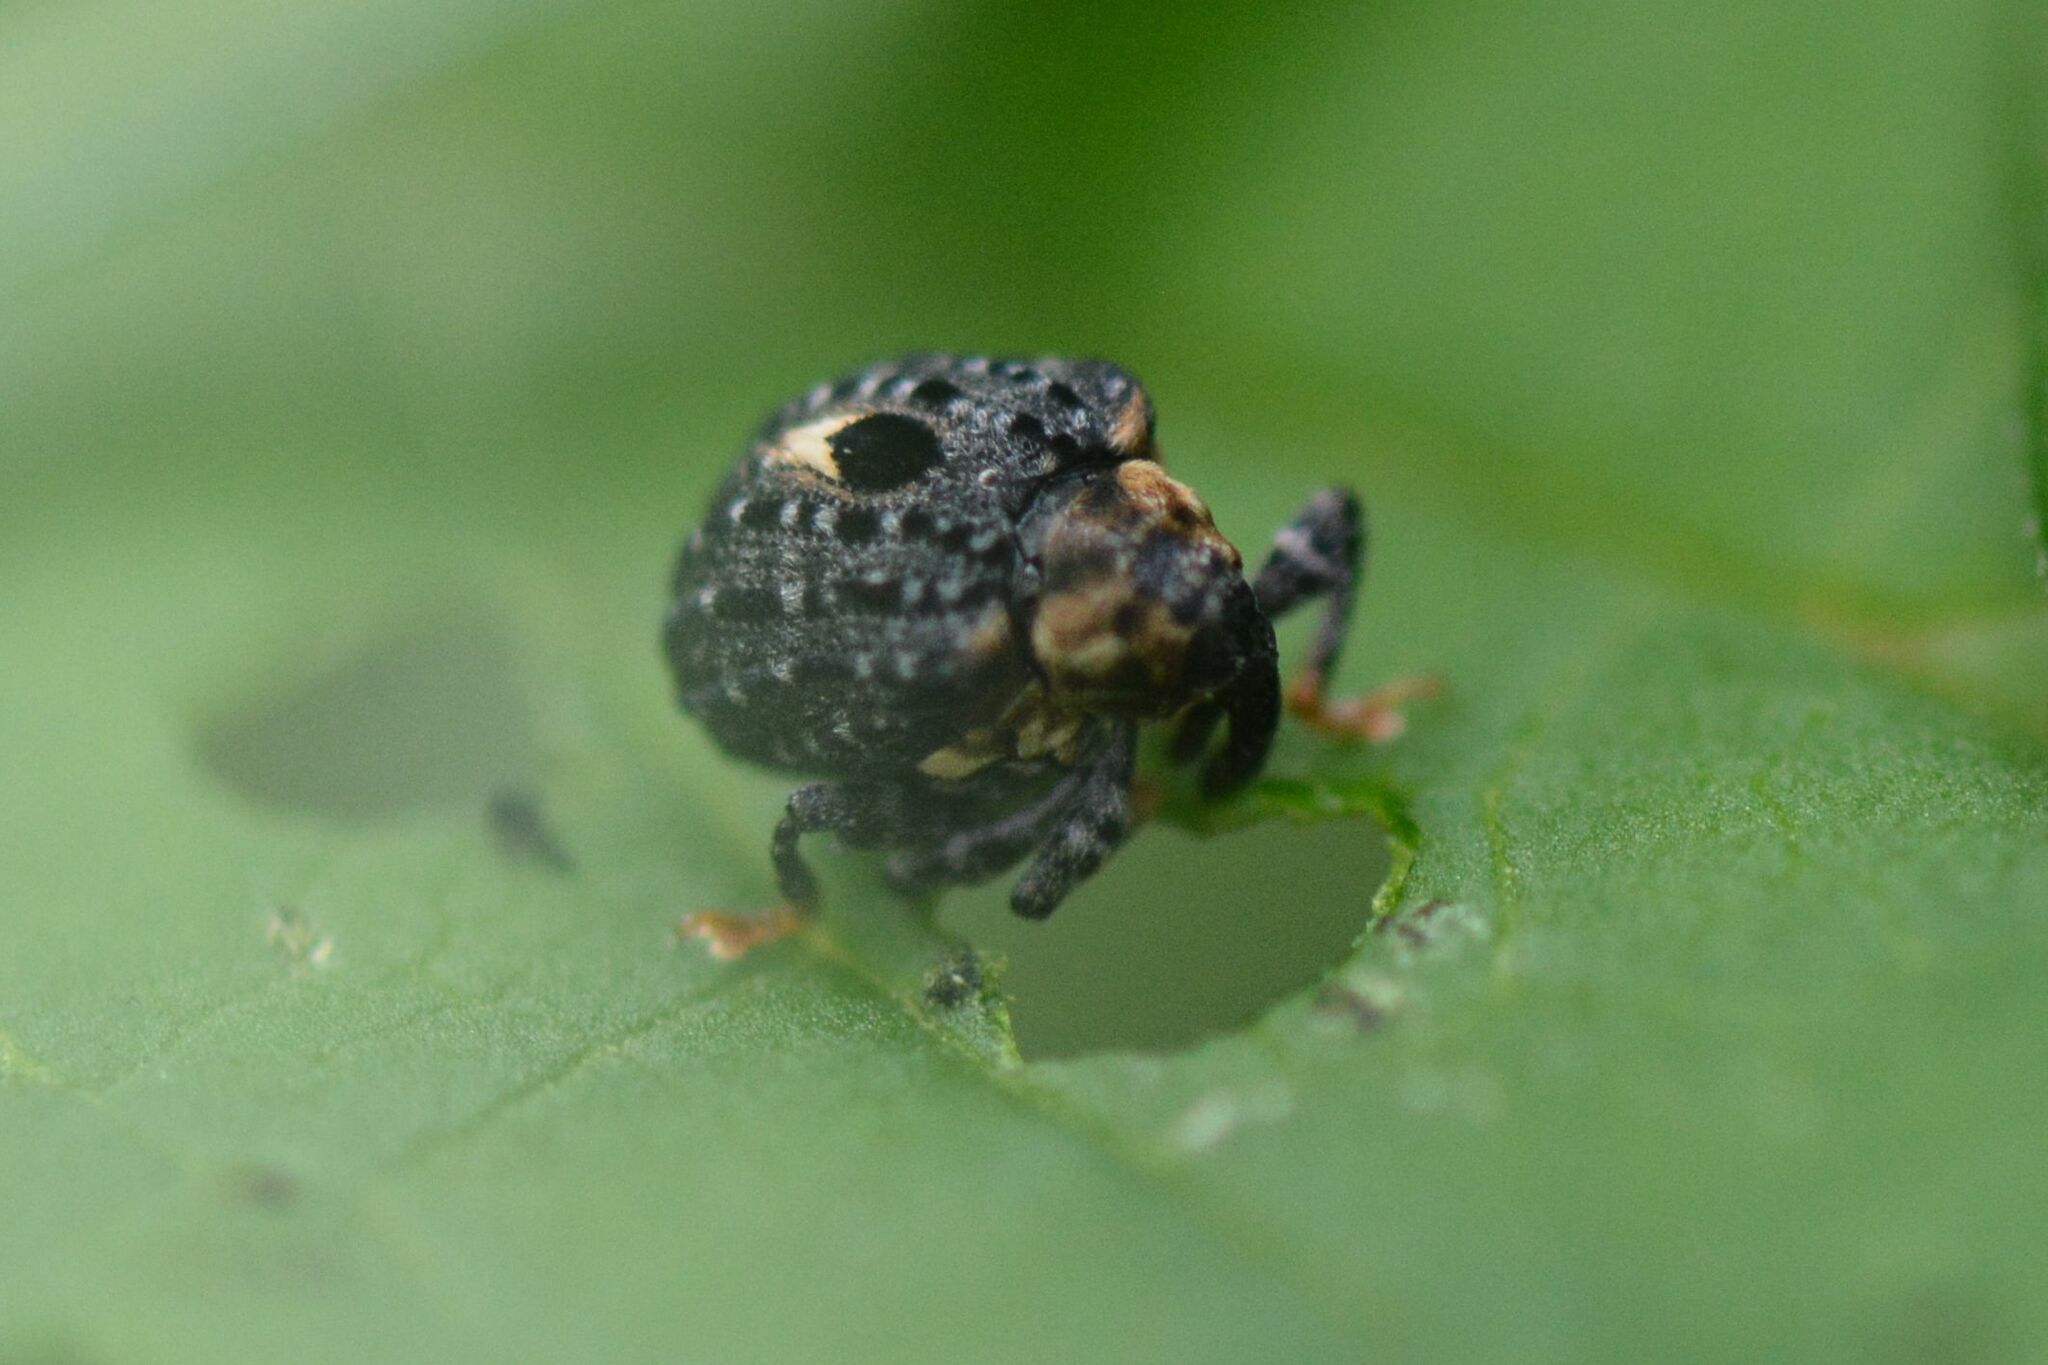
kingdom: Animalia
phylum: Arthropoda
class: Insecta
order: Coleoptera
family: Curculionidae
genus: Cionus
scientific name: Cionus tuberculosus
